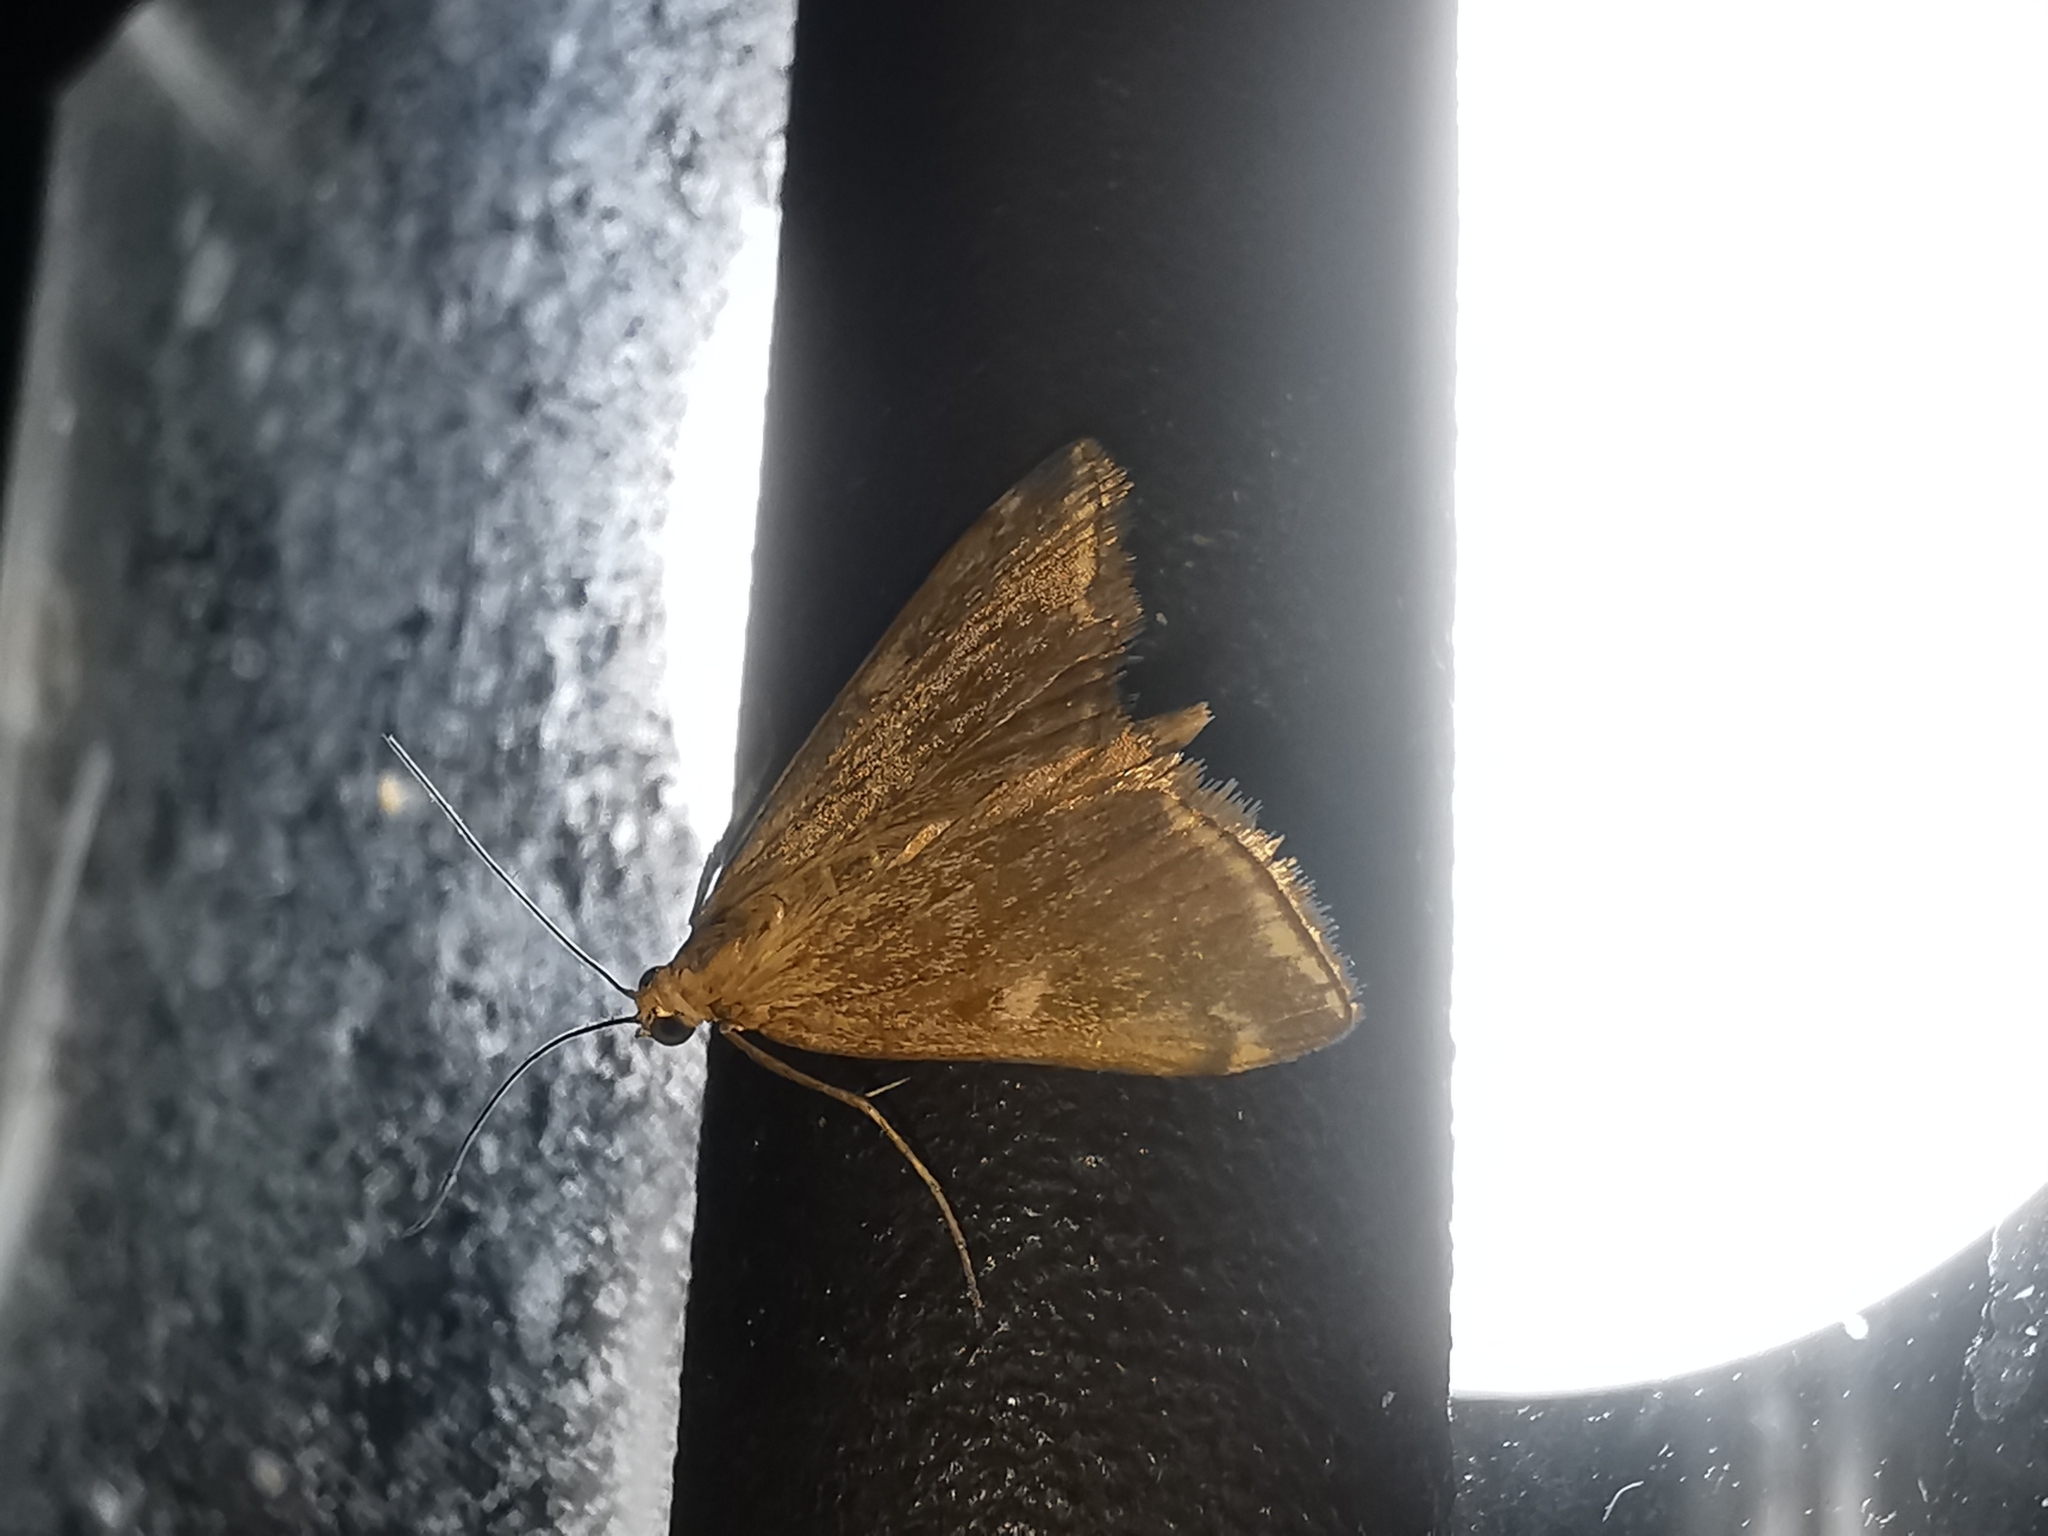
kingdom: Animalia
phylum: Arthropoda
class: Insecta
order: Lepidoptera
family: Crambidae
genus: Loxostege
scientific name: Loxostege sticticalis
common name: Crambid moth
